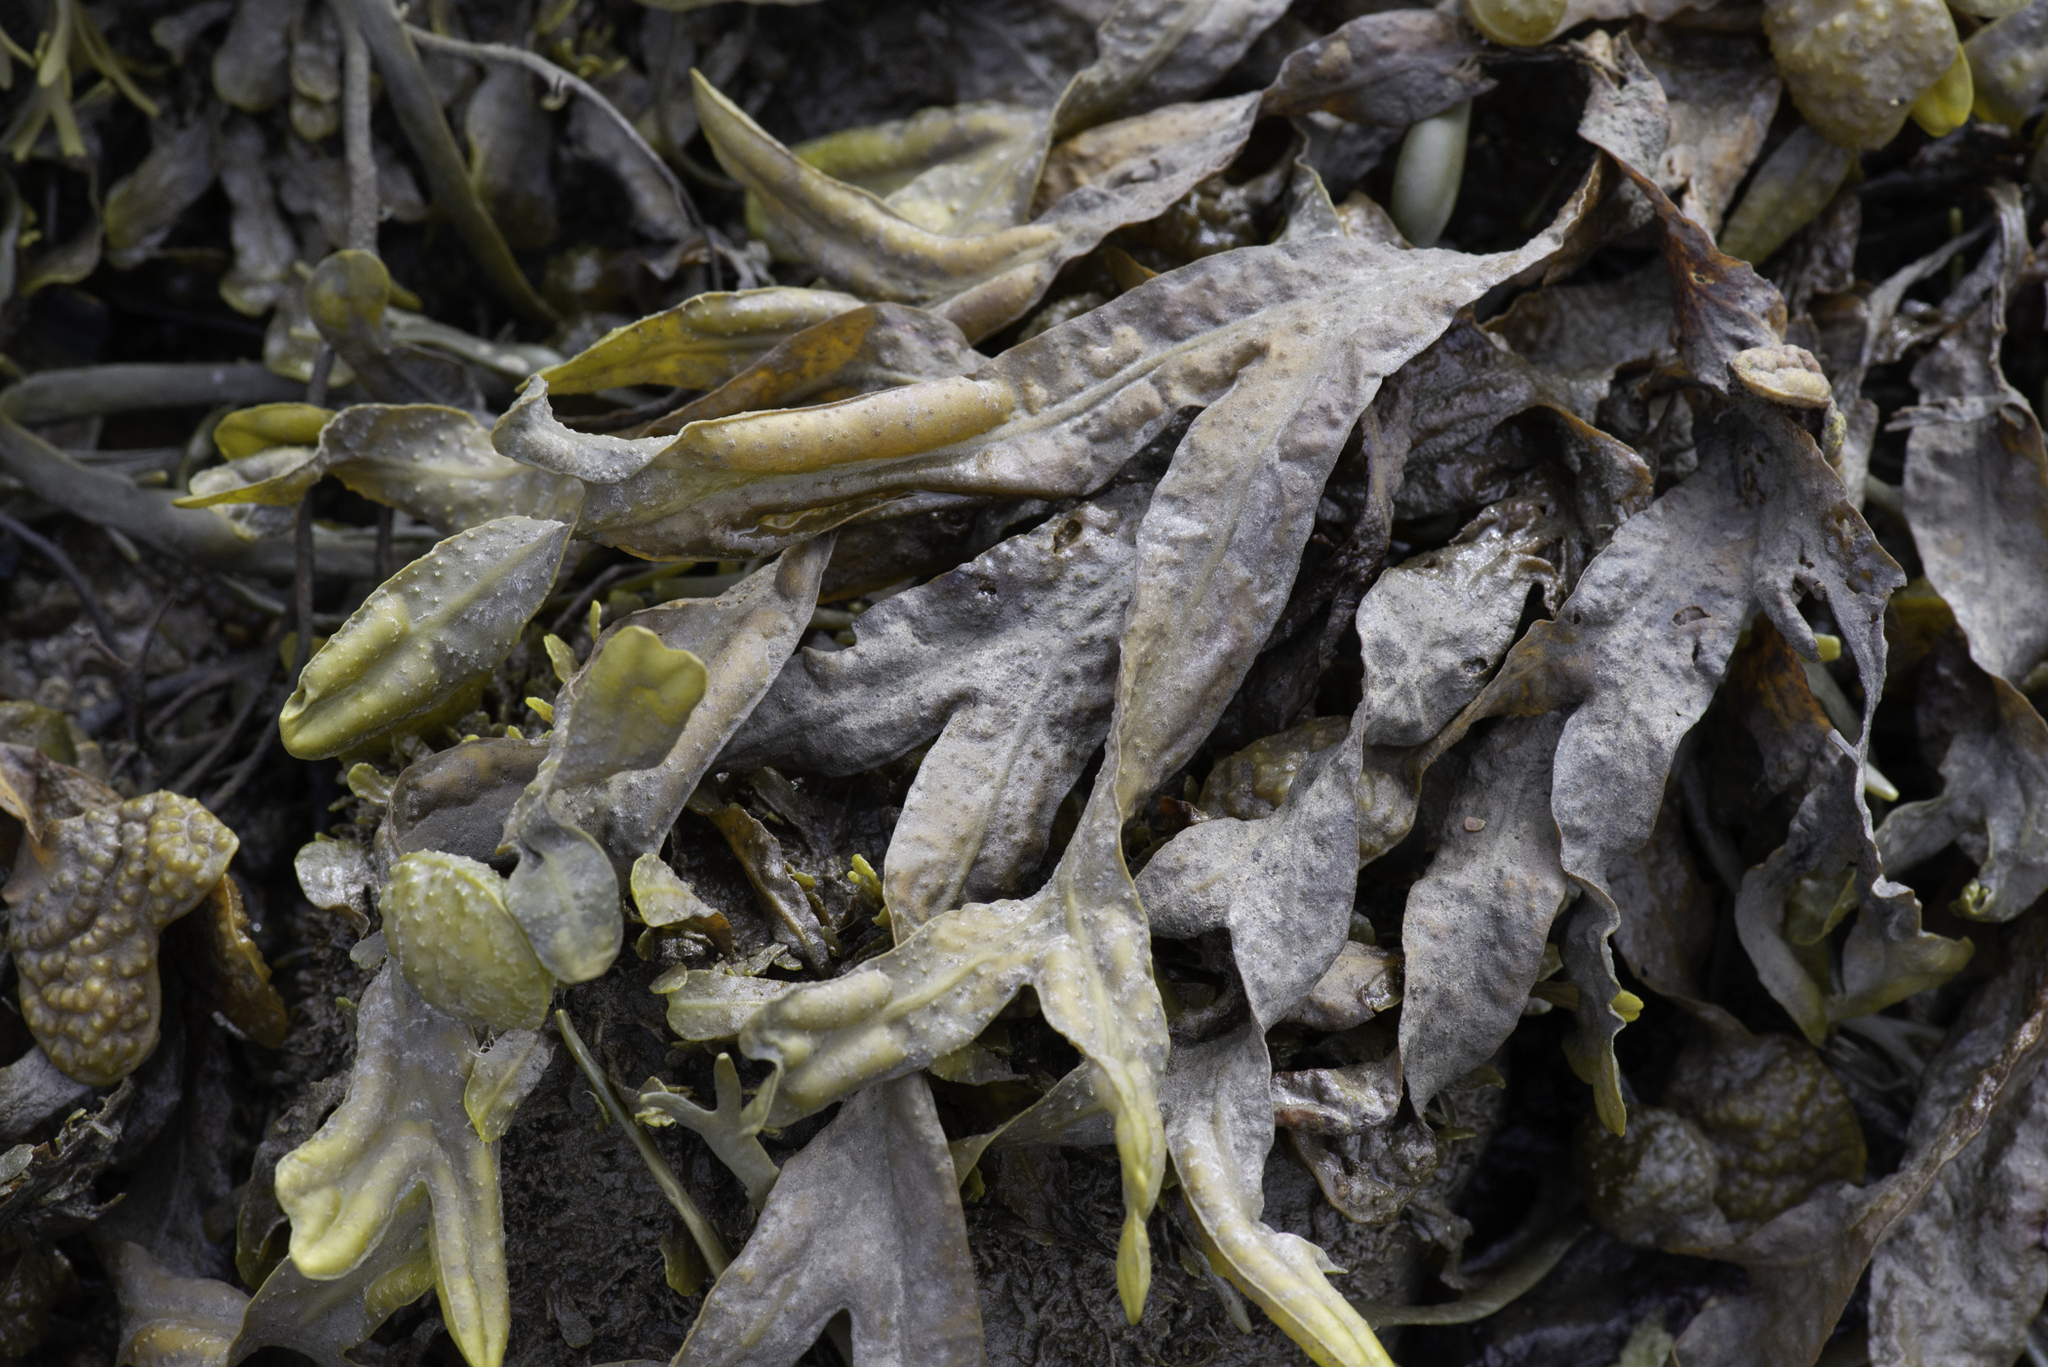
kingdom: Chromista
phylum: Ochrophyta
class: Phaeophyceae
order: Fucales
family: Fucaceae
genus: Fucus
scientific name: Fucus spiralis
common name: Spiral wrack
